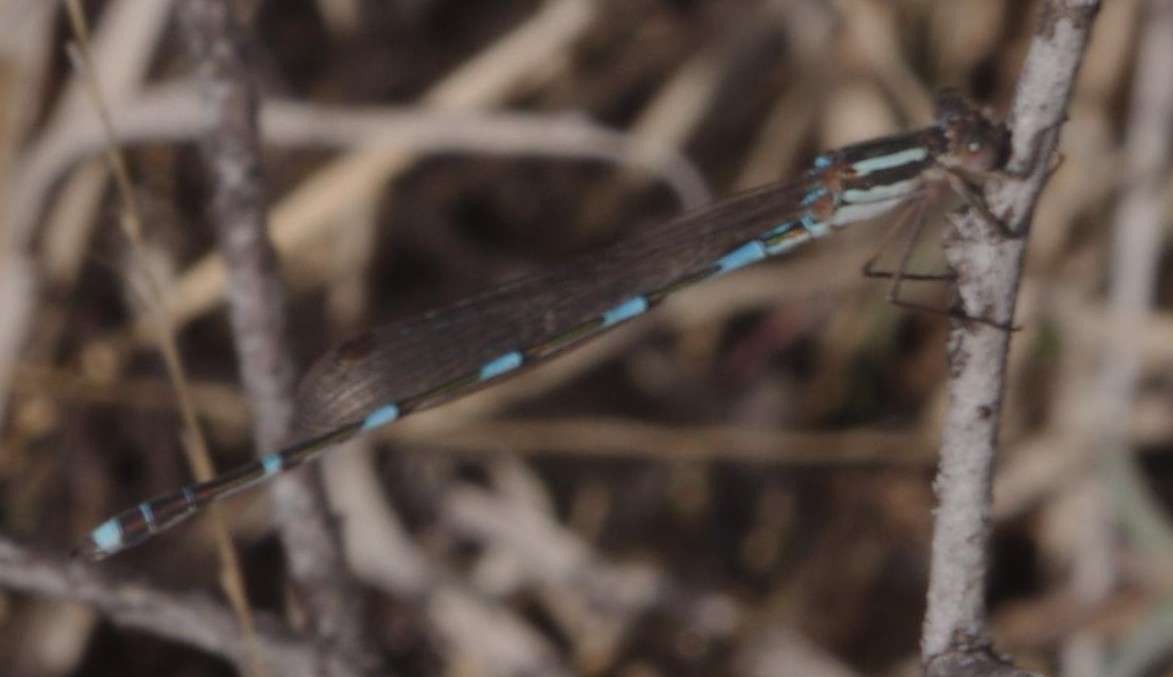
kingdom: Animalia
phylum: Arthropoda
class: Insecta
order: Odonata
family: Lestidae
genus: Austrolestes
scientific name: Austrolestes leda
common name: Wandering ringtail
